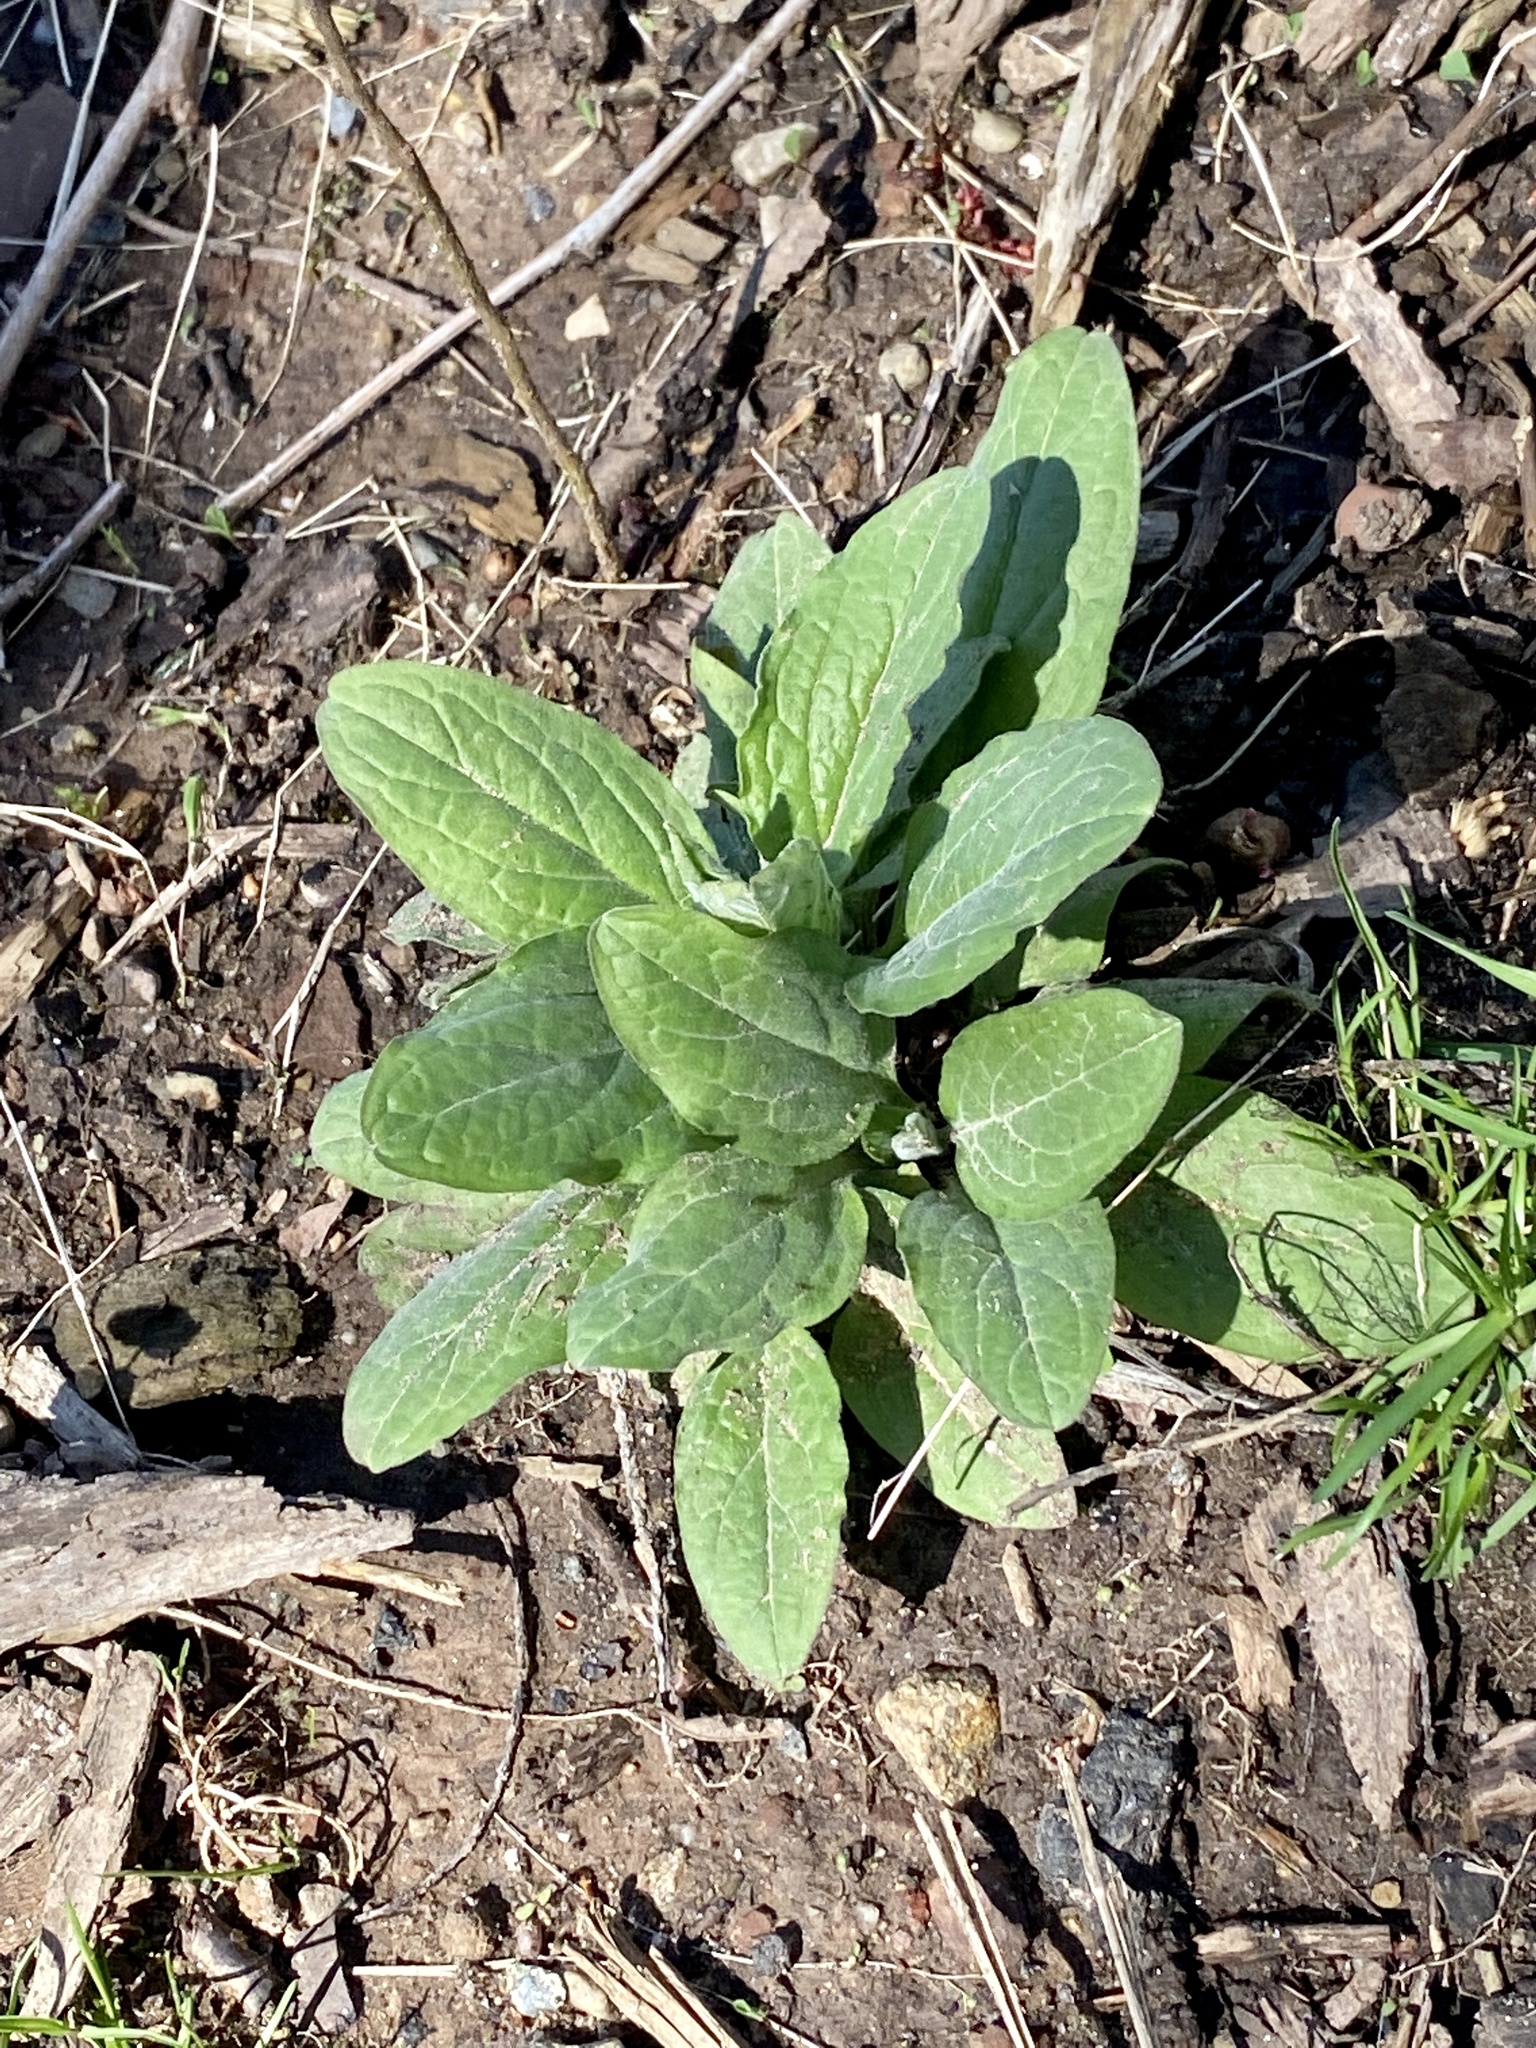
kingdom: Plantae
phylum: Tracheophyta
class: Magnoliopsida
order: Boraginales
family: Boraginaceae
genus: Hackelia
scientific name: Hackelia virginiana
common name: Beggar's-lice
